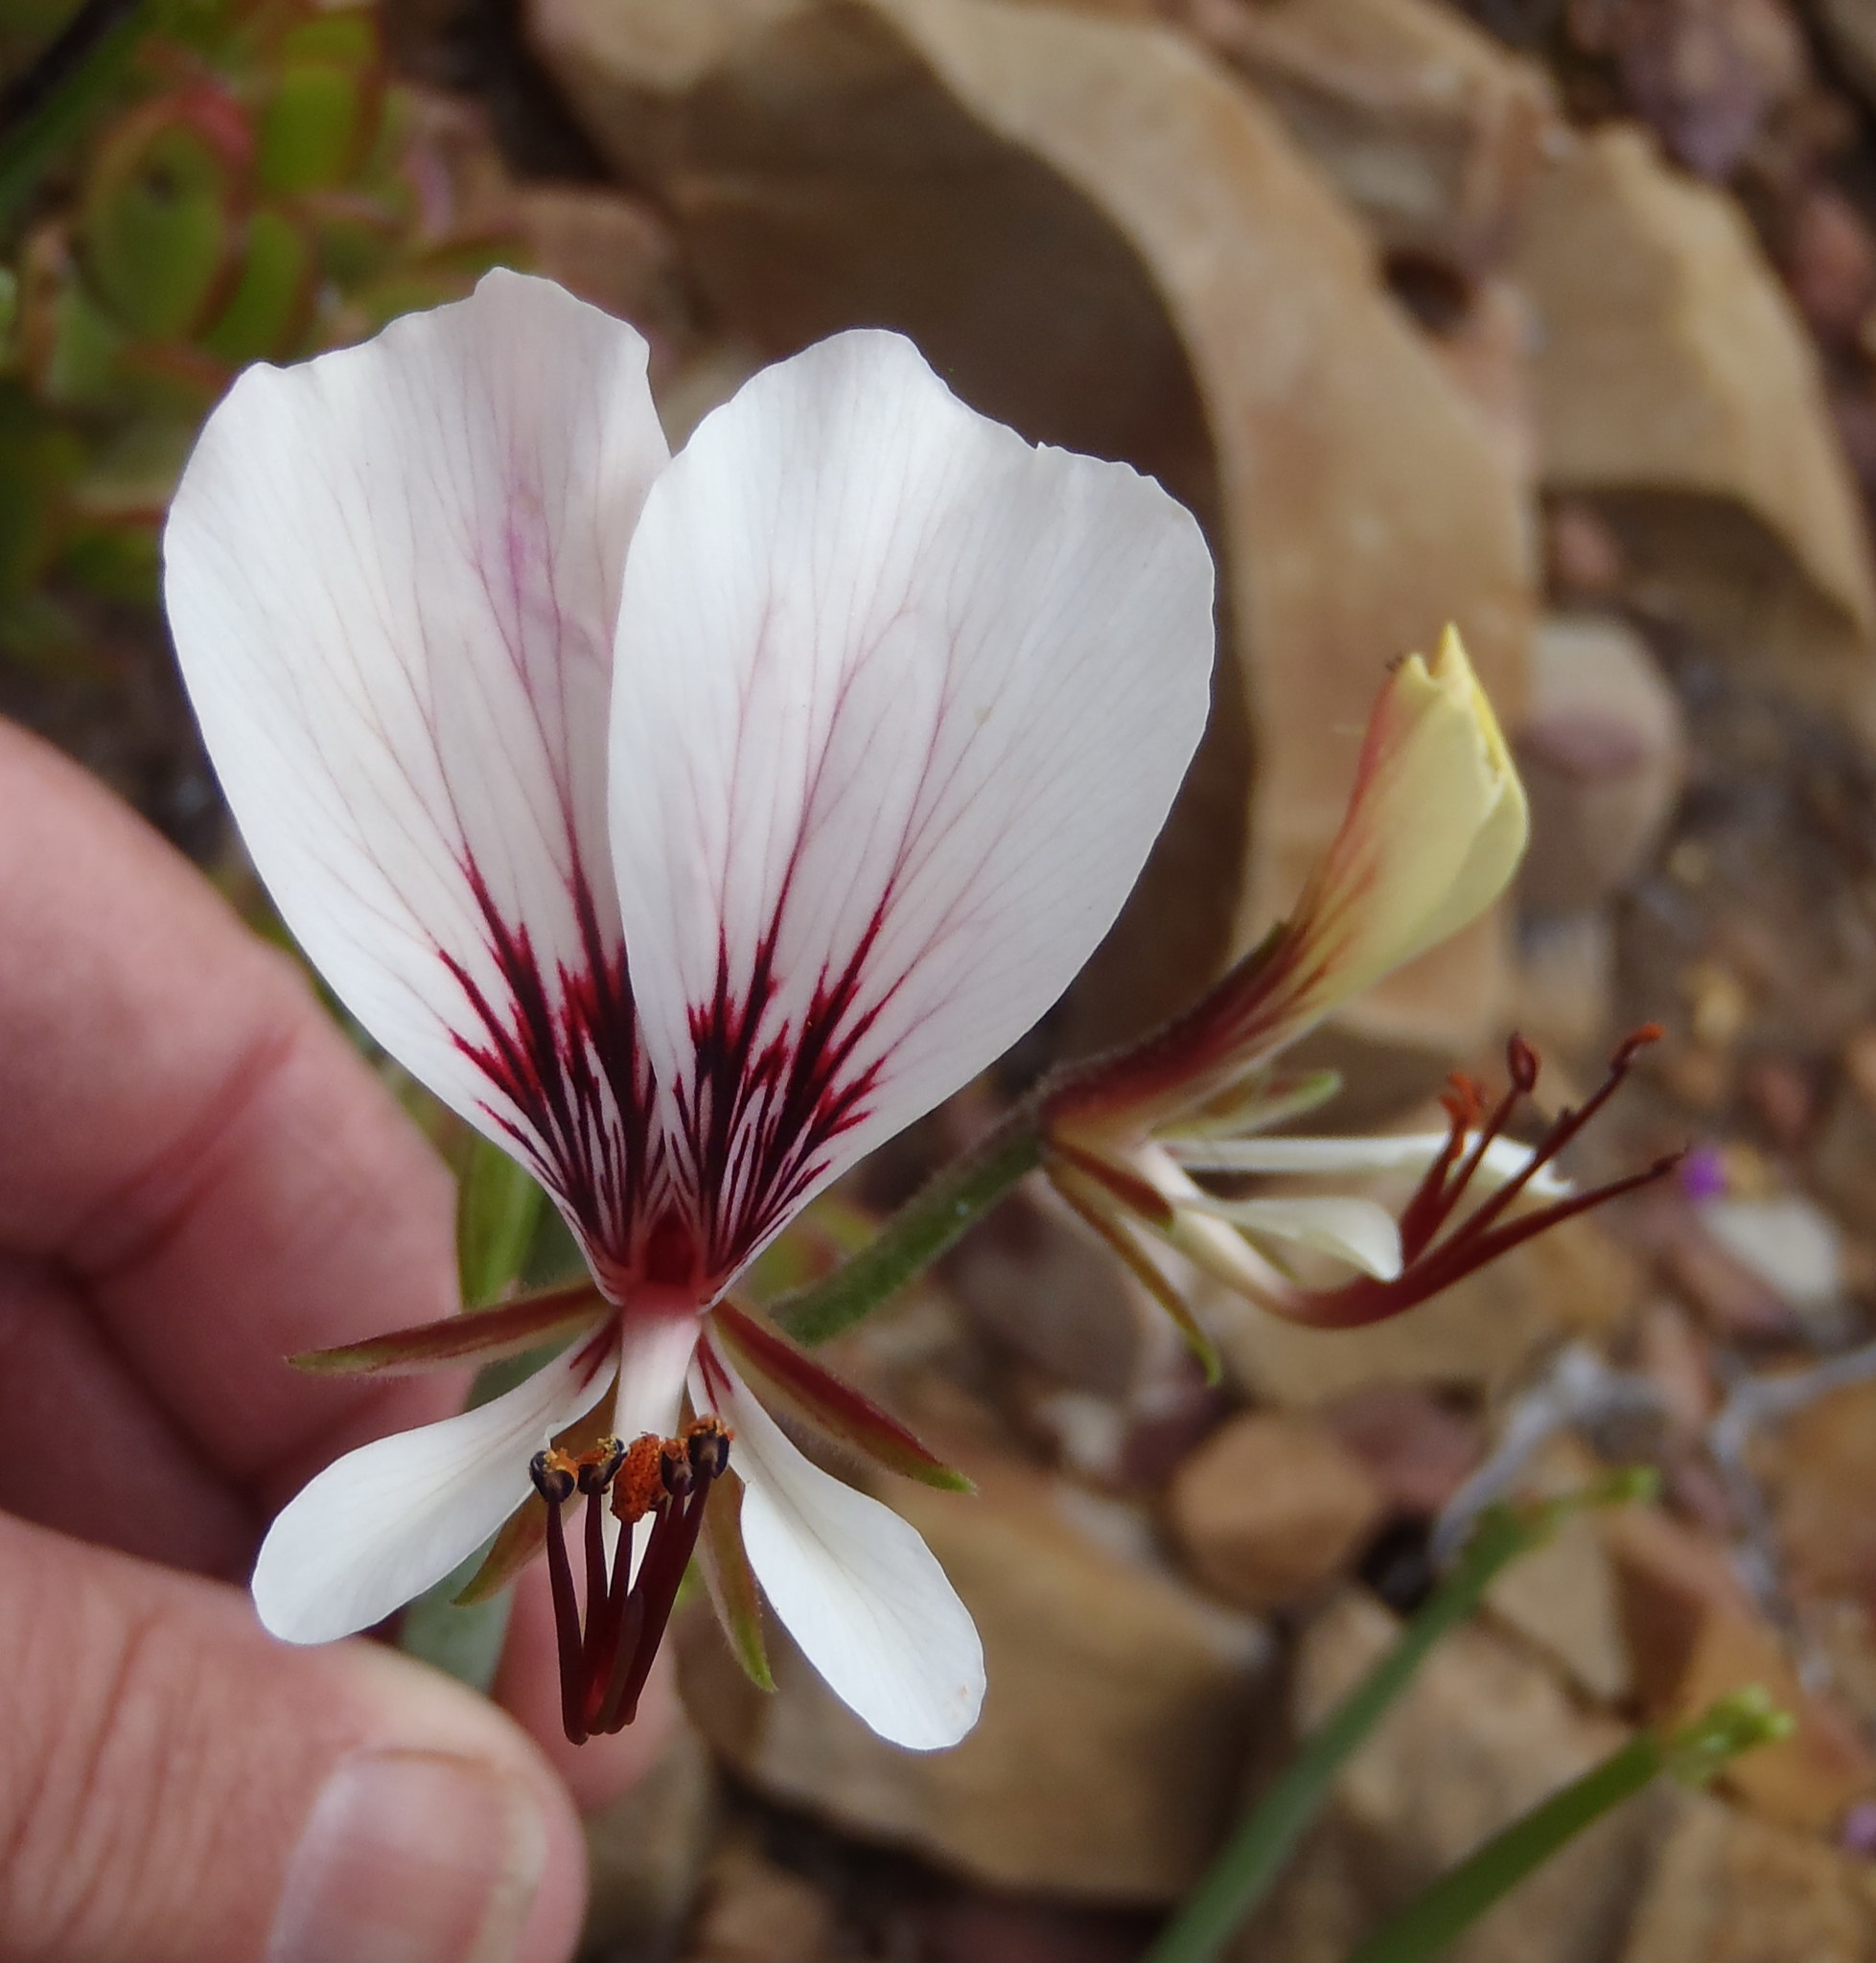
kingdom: Plantae
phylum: Tracheophyta
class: Magnoliopsida
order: Geraniales
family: Geraniaceae
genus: Pelargonium
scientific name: Pelargonium tetragonum
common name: Square-stack crane's-bill
